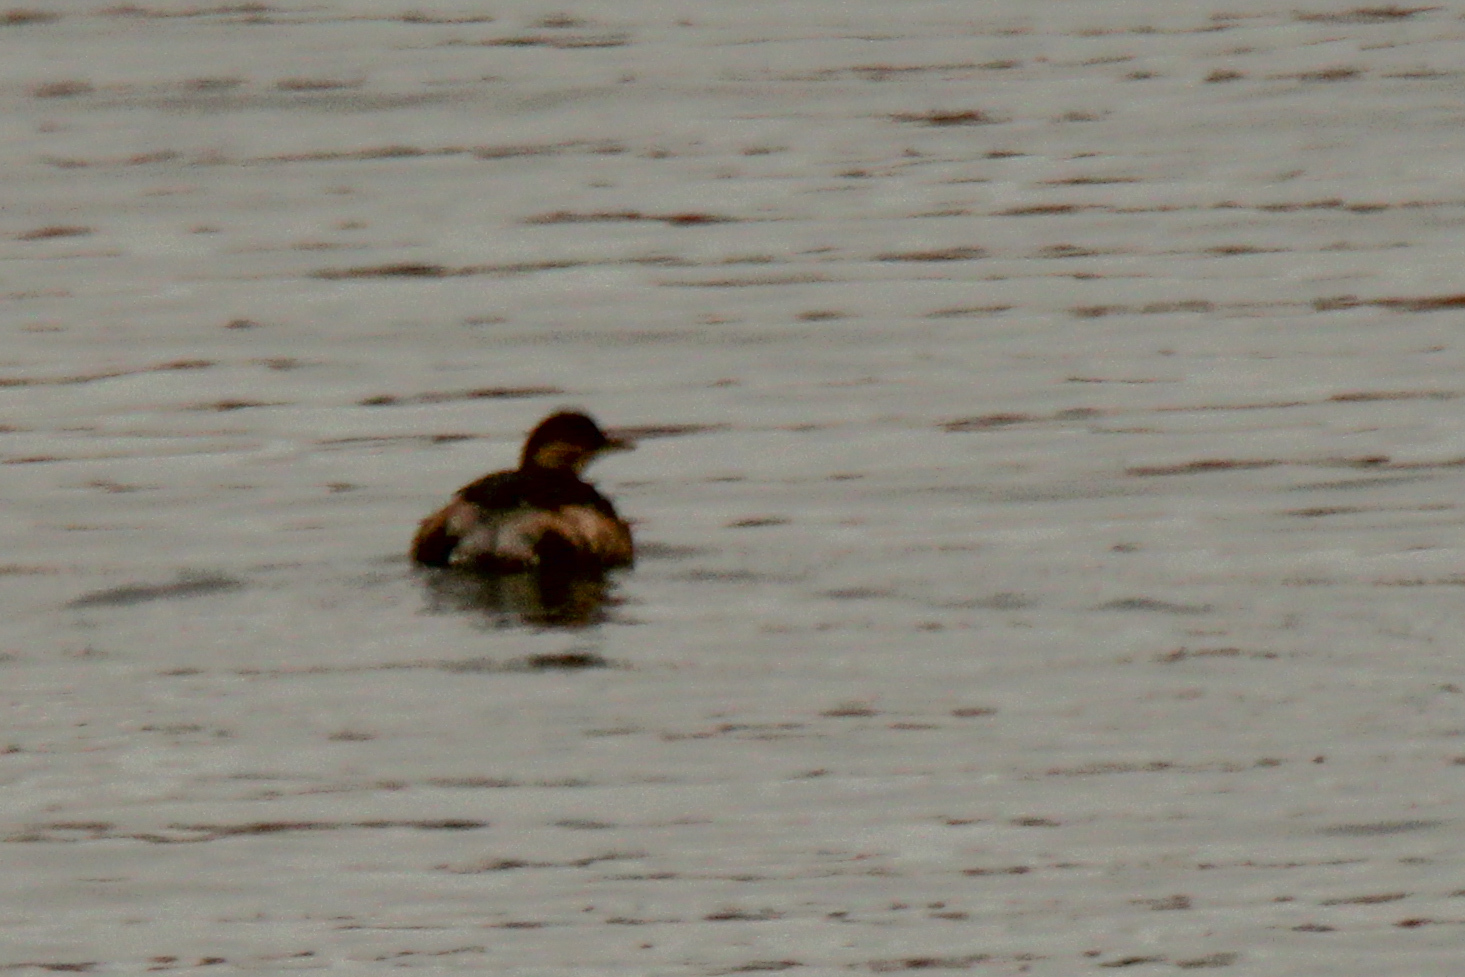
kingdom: Animalia
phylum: Chordata
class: Aves
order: Podicipediformes
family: Podicipedidae
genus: Tachybaptus
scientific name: Tachybaptus ruficollis
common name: Little grebe
